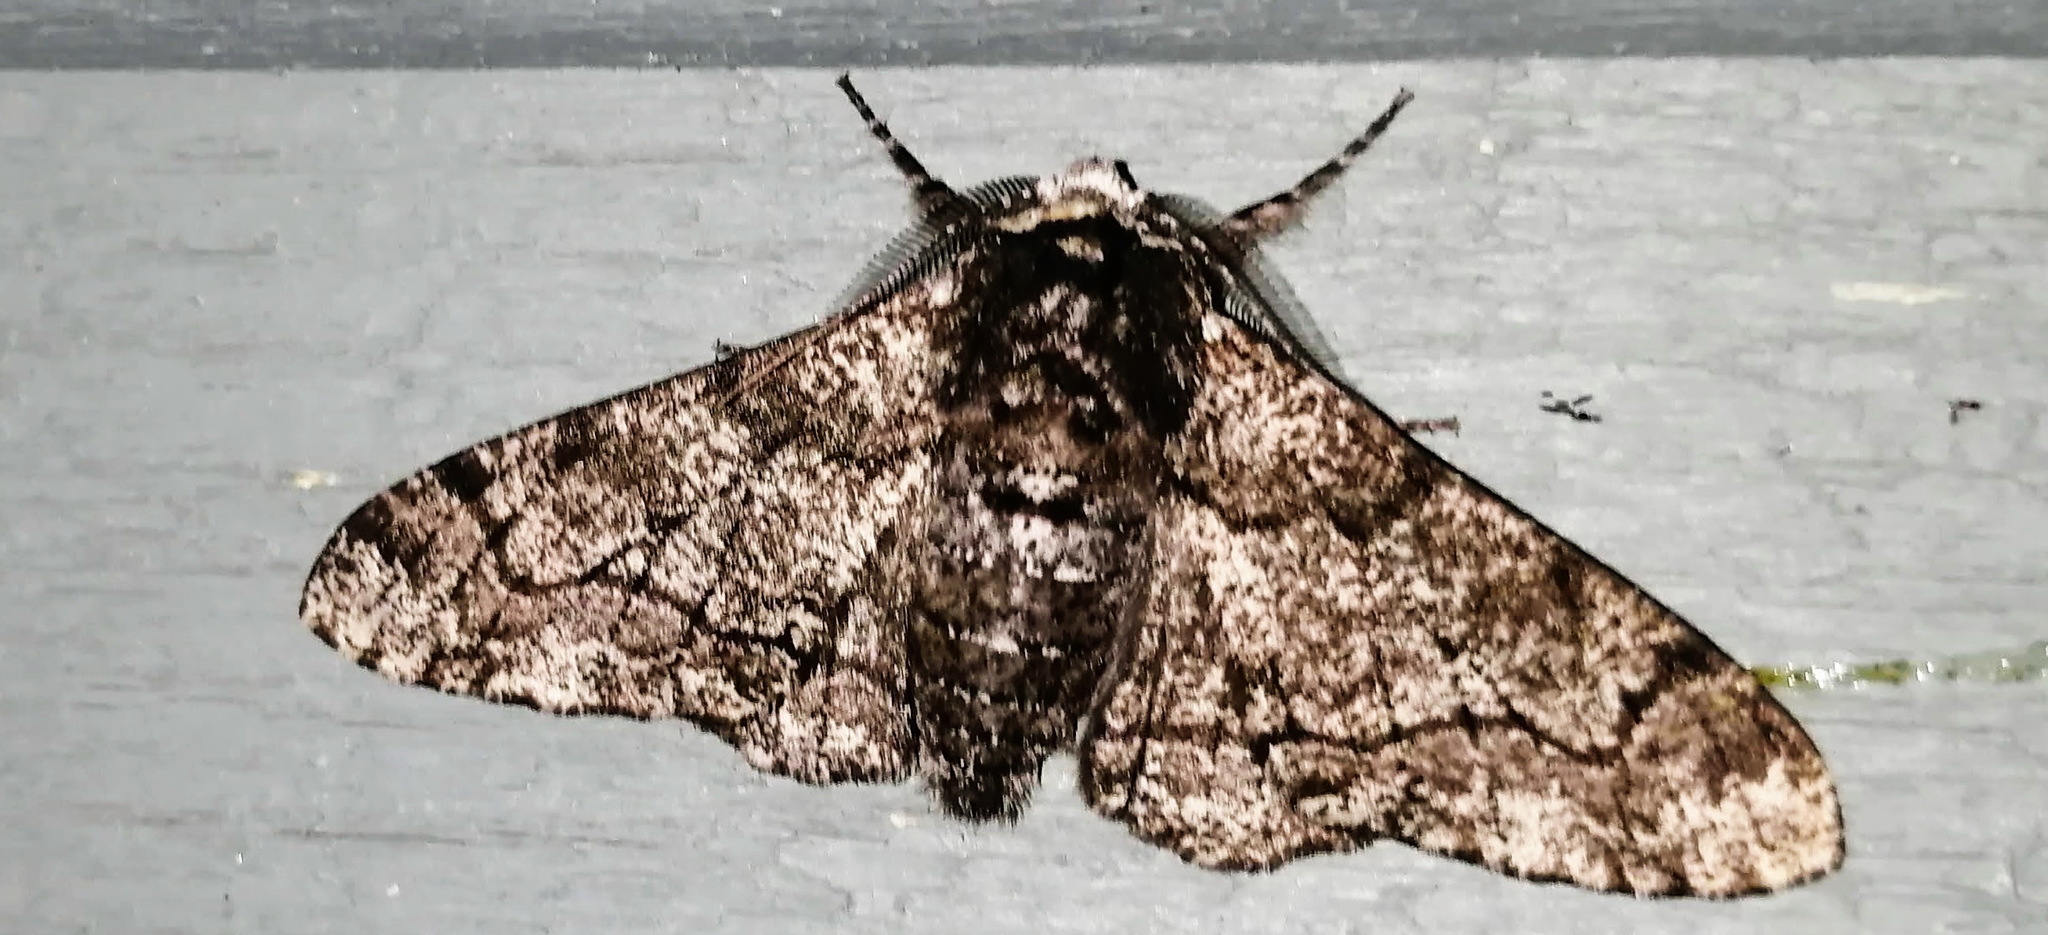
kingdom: Animalia
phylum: Arthropoda
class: Insecta
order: Lepidoptera
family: Geometridae
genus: Biston
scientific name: Biston betularia
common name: Peppered moth
